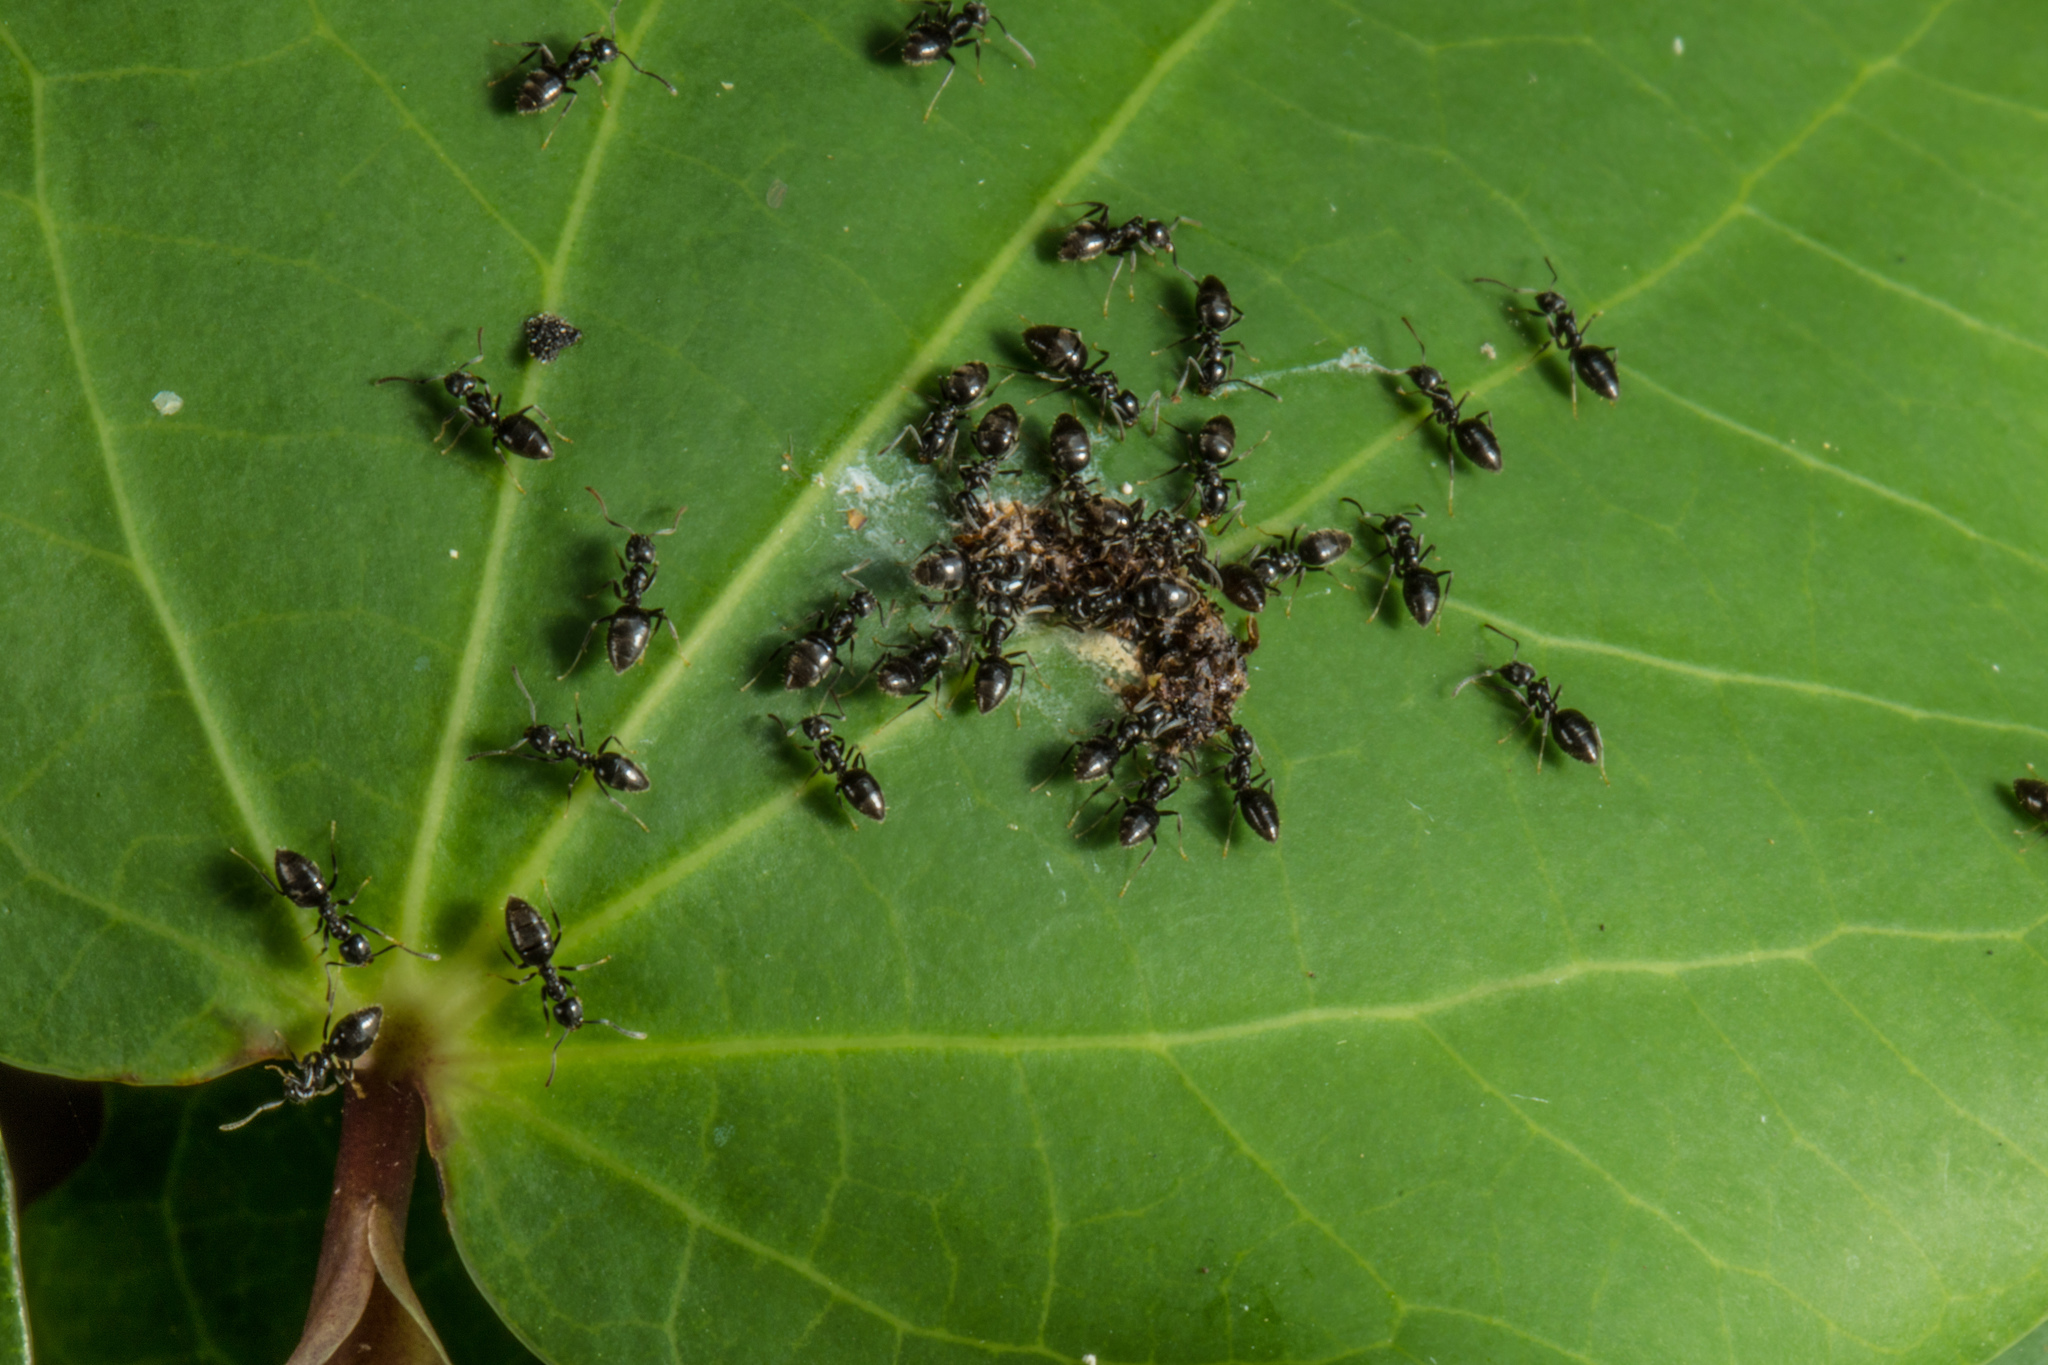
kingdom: Animalia
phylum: Arthropoda
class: Insecta
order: Hymenoptera
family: Formicidae
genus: Technomyrmex
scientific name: Technomyrmex jocosus
